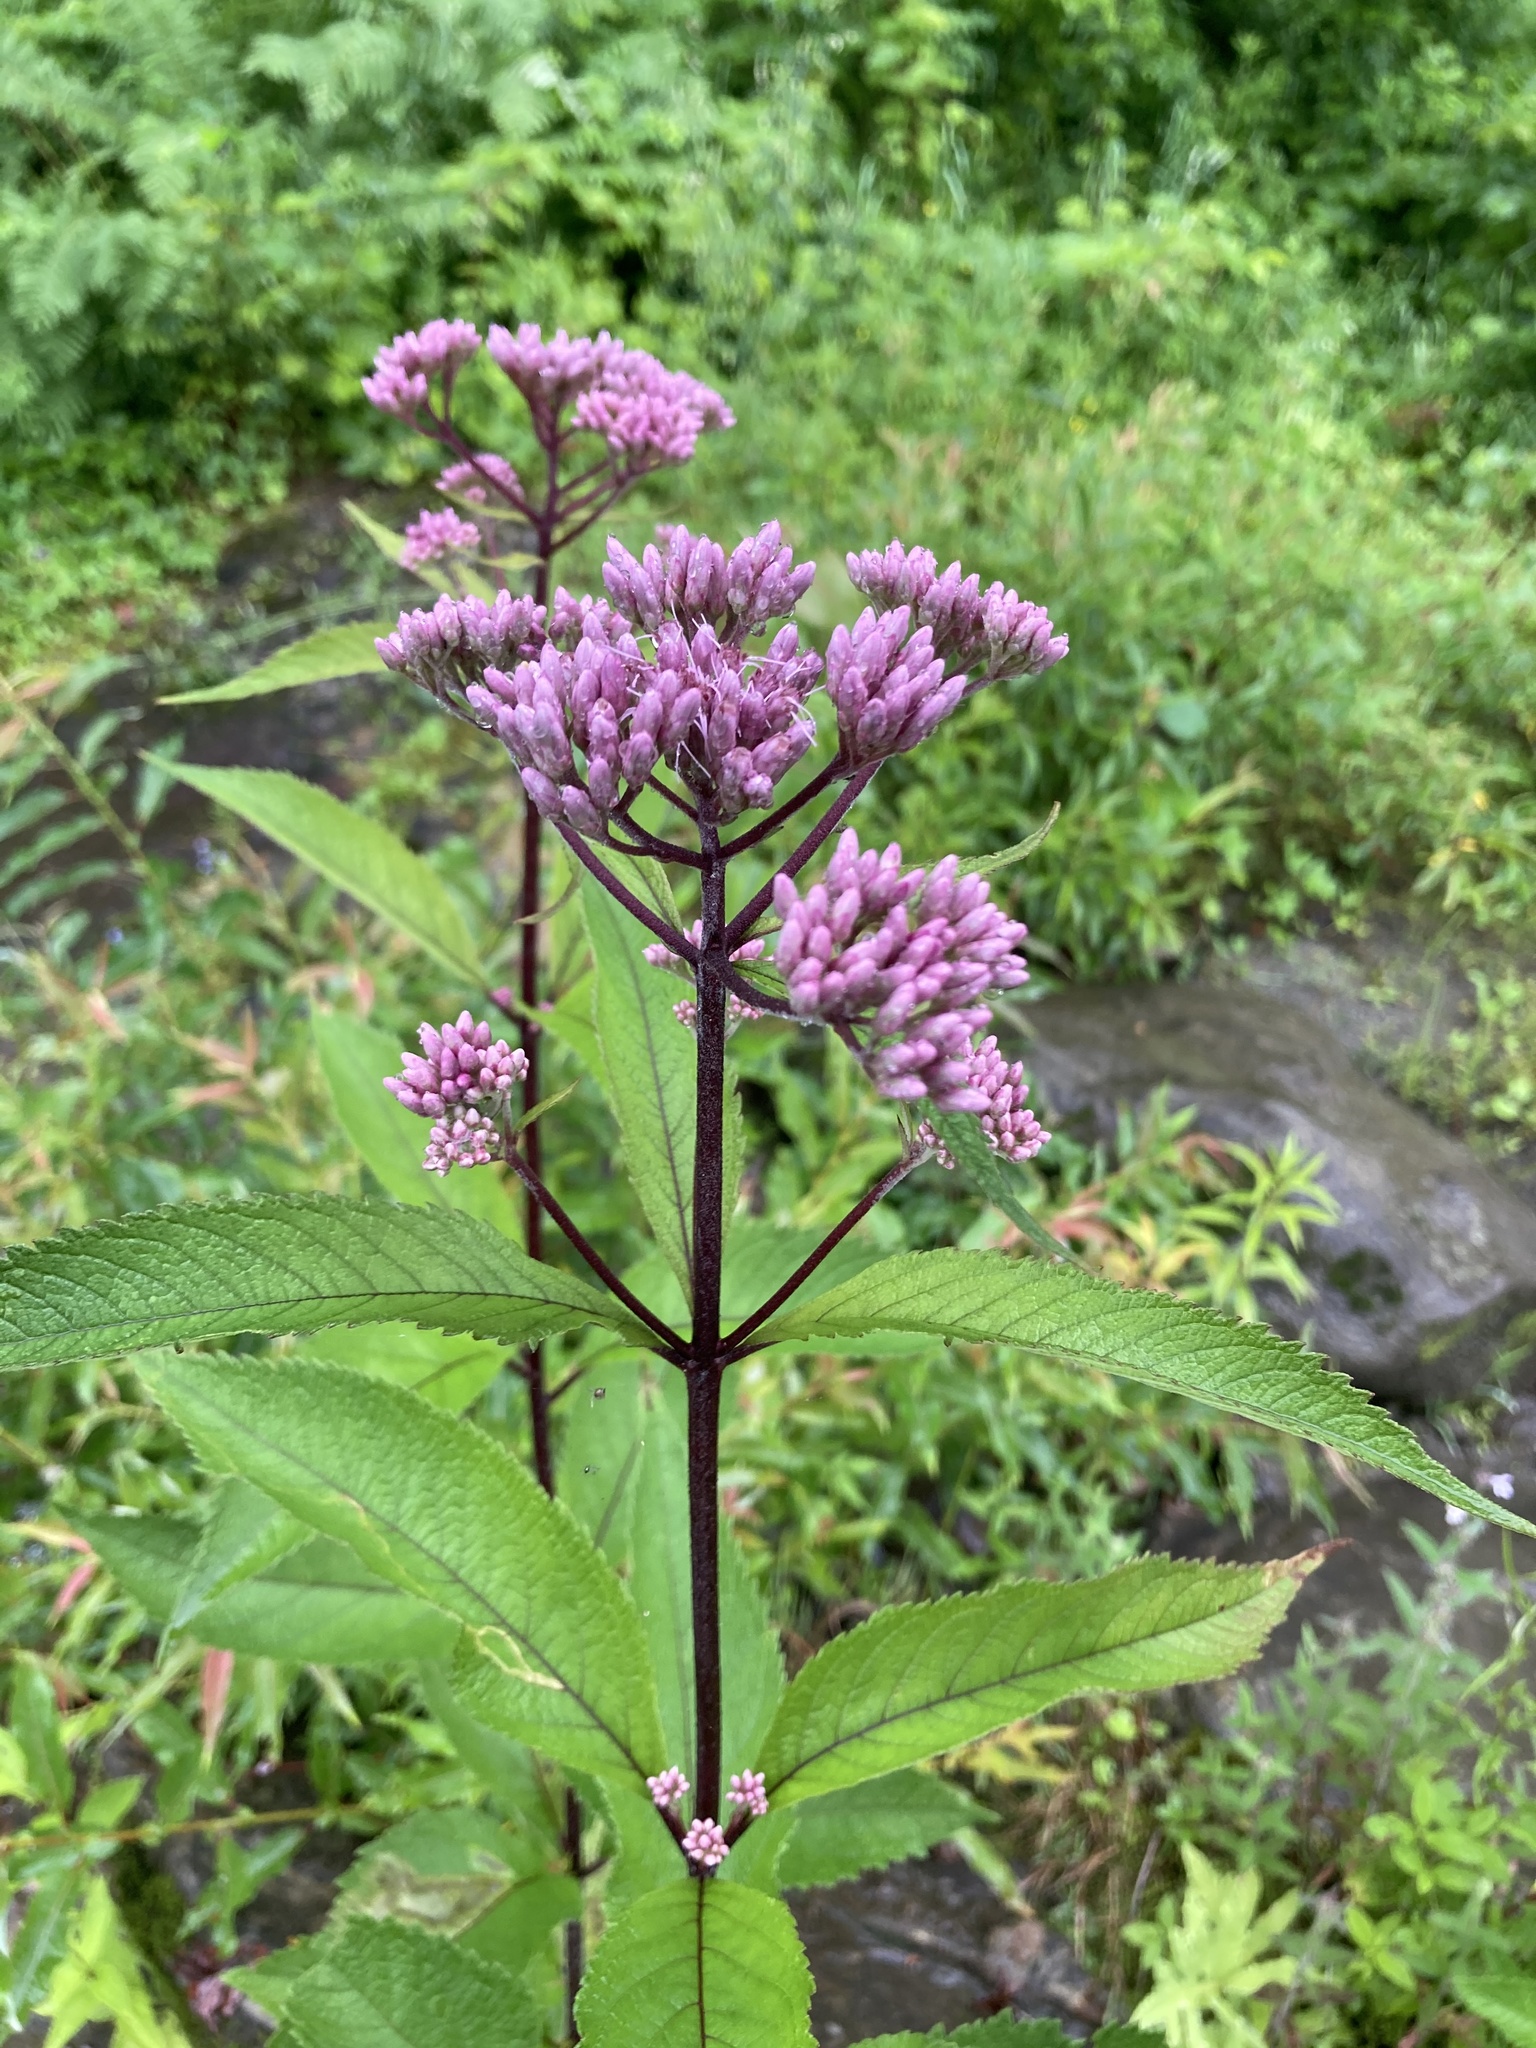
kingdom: Plantae
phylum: Tracheophyta
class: Magnoliopsida
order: Asterales
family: Asteraceae
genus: Eutrochium
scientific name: Eutrochium maculatum
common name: Spotted joe pye weed
